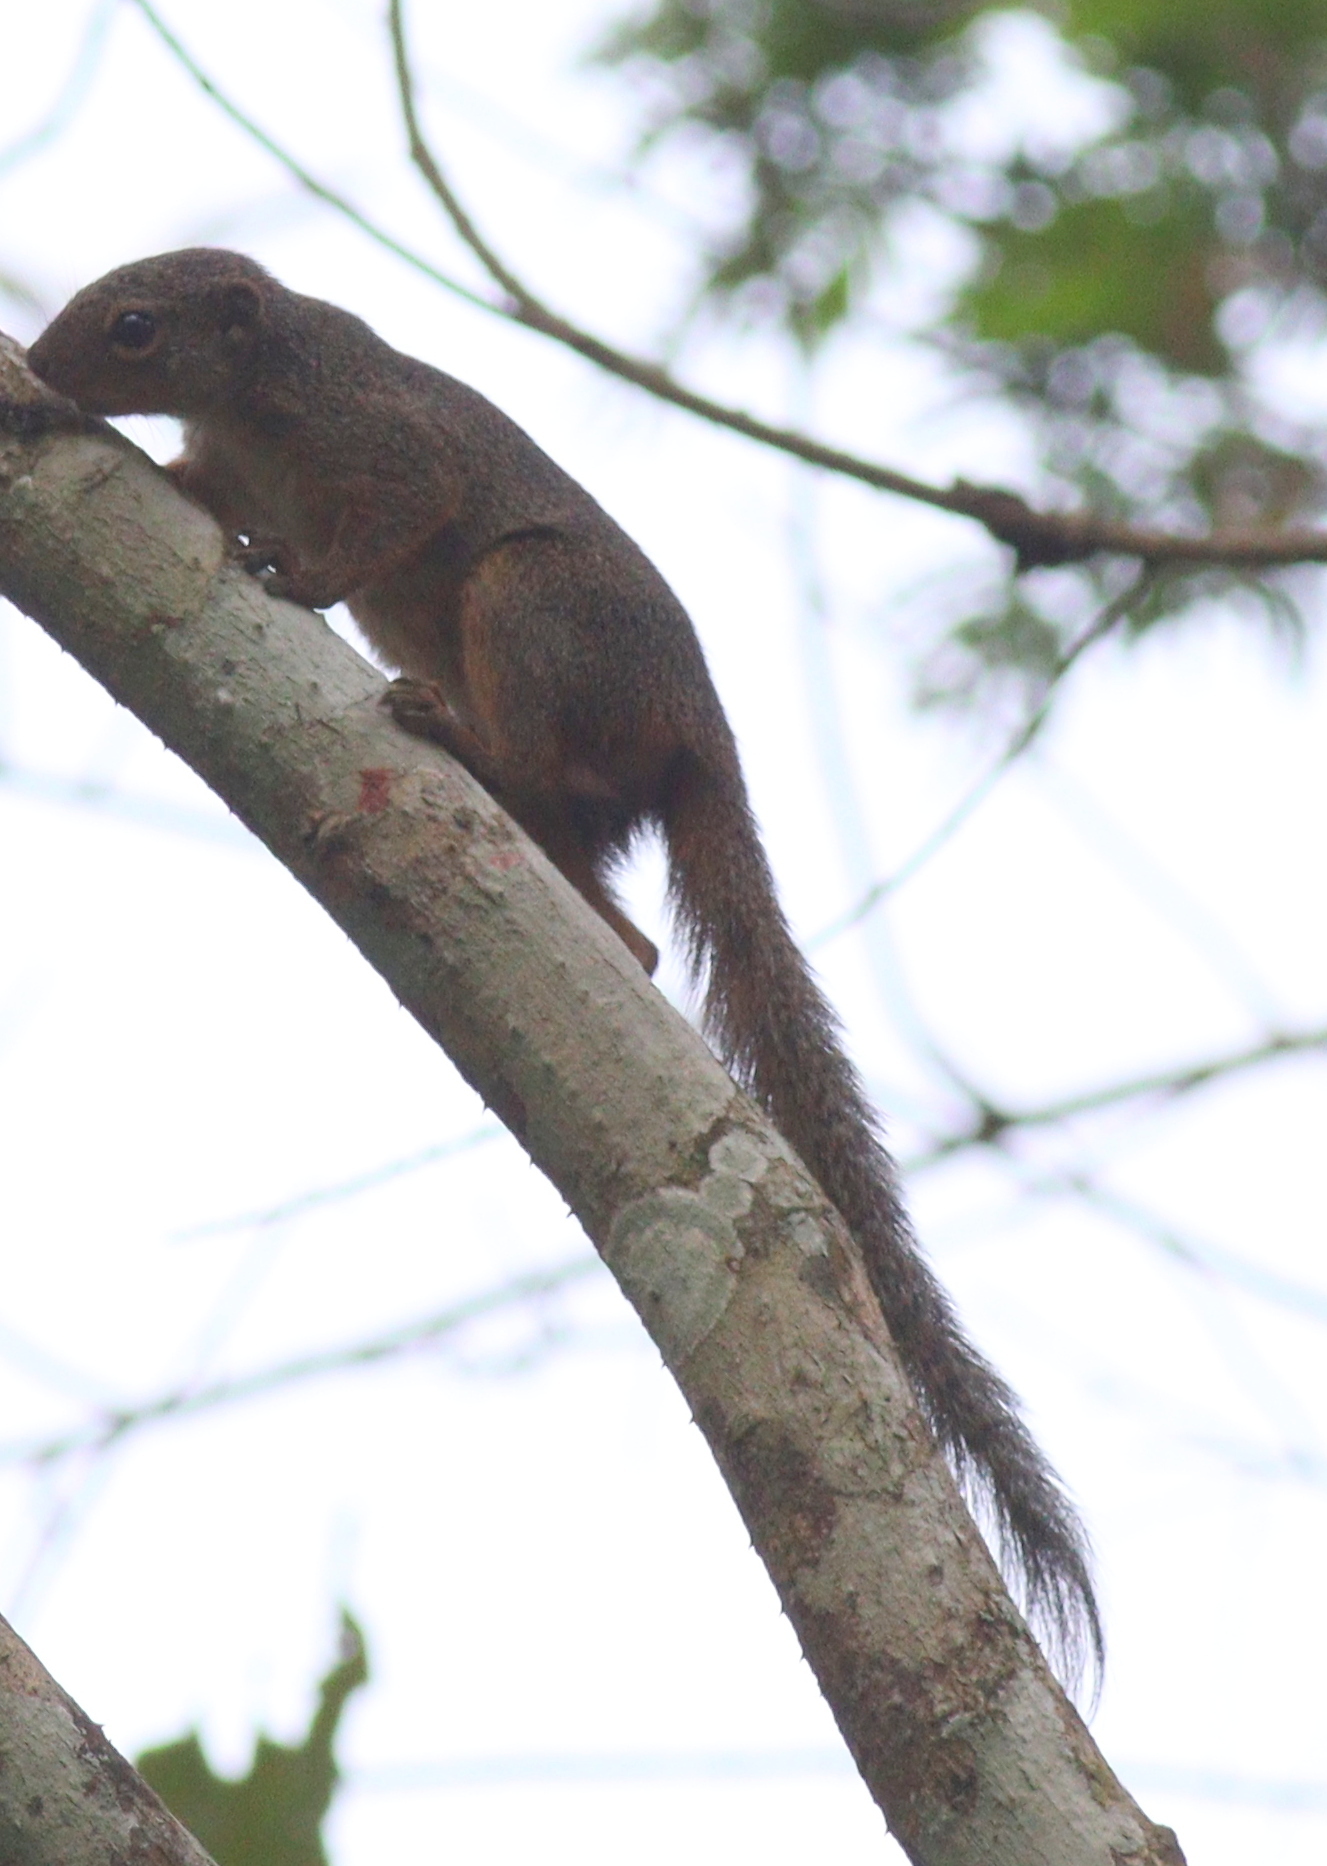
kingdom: Animalia
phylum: Chordata
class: Mammalia
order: Rodentia
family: Sciuridae
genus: Heliosciurus
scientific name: Heliosciurus rufobrachium
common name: Red-legged sun squirrel
